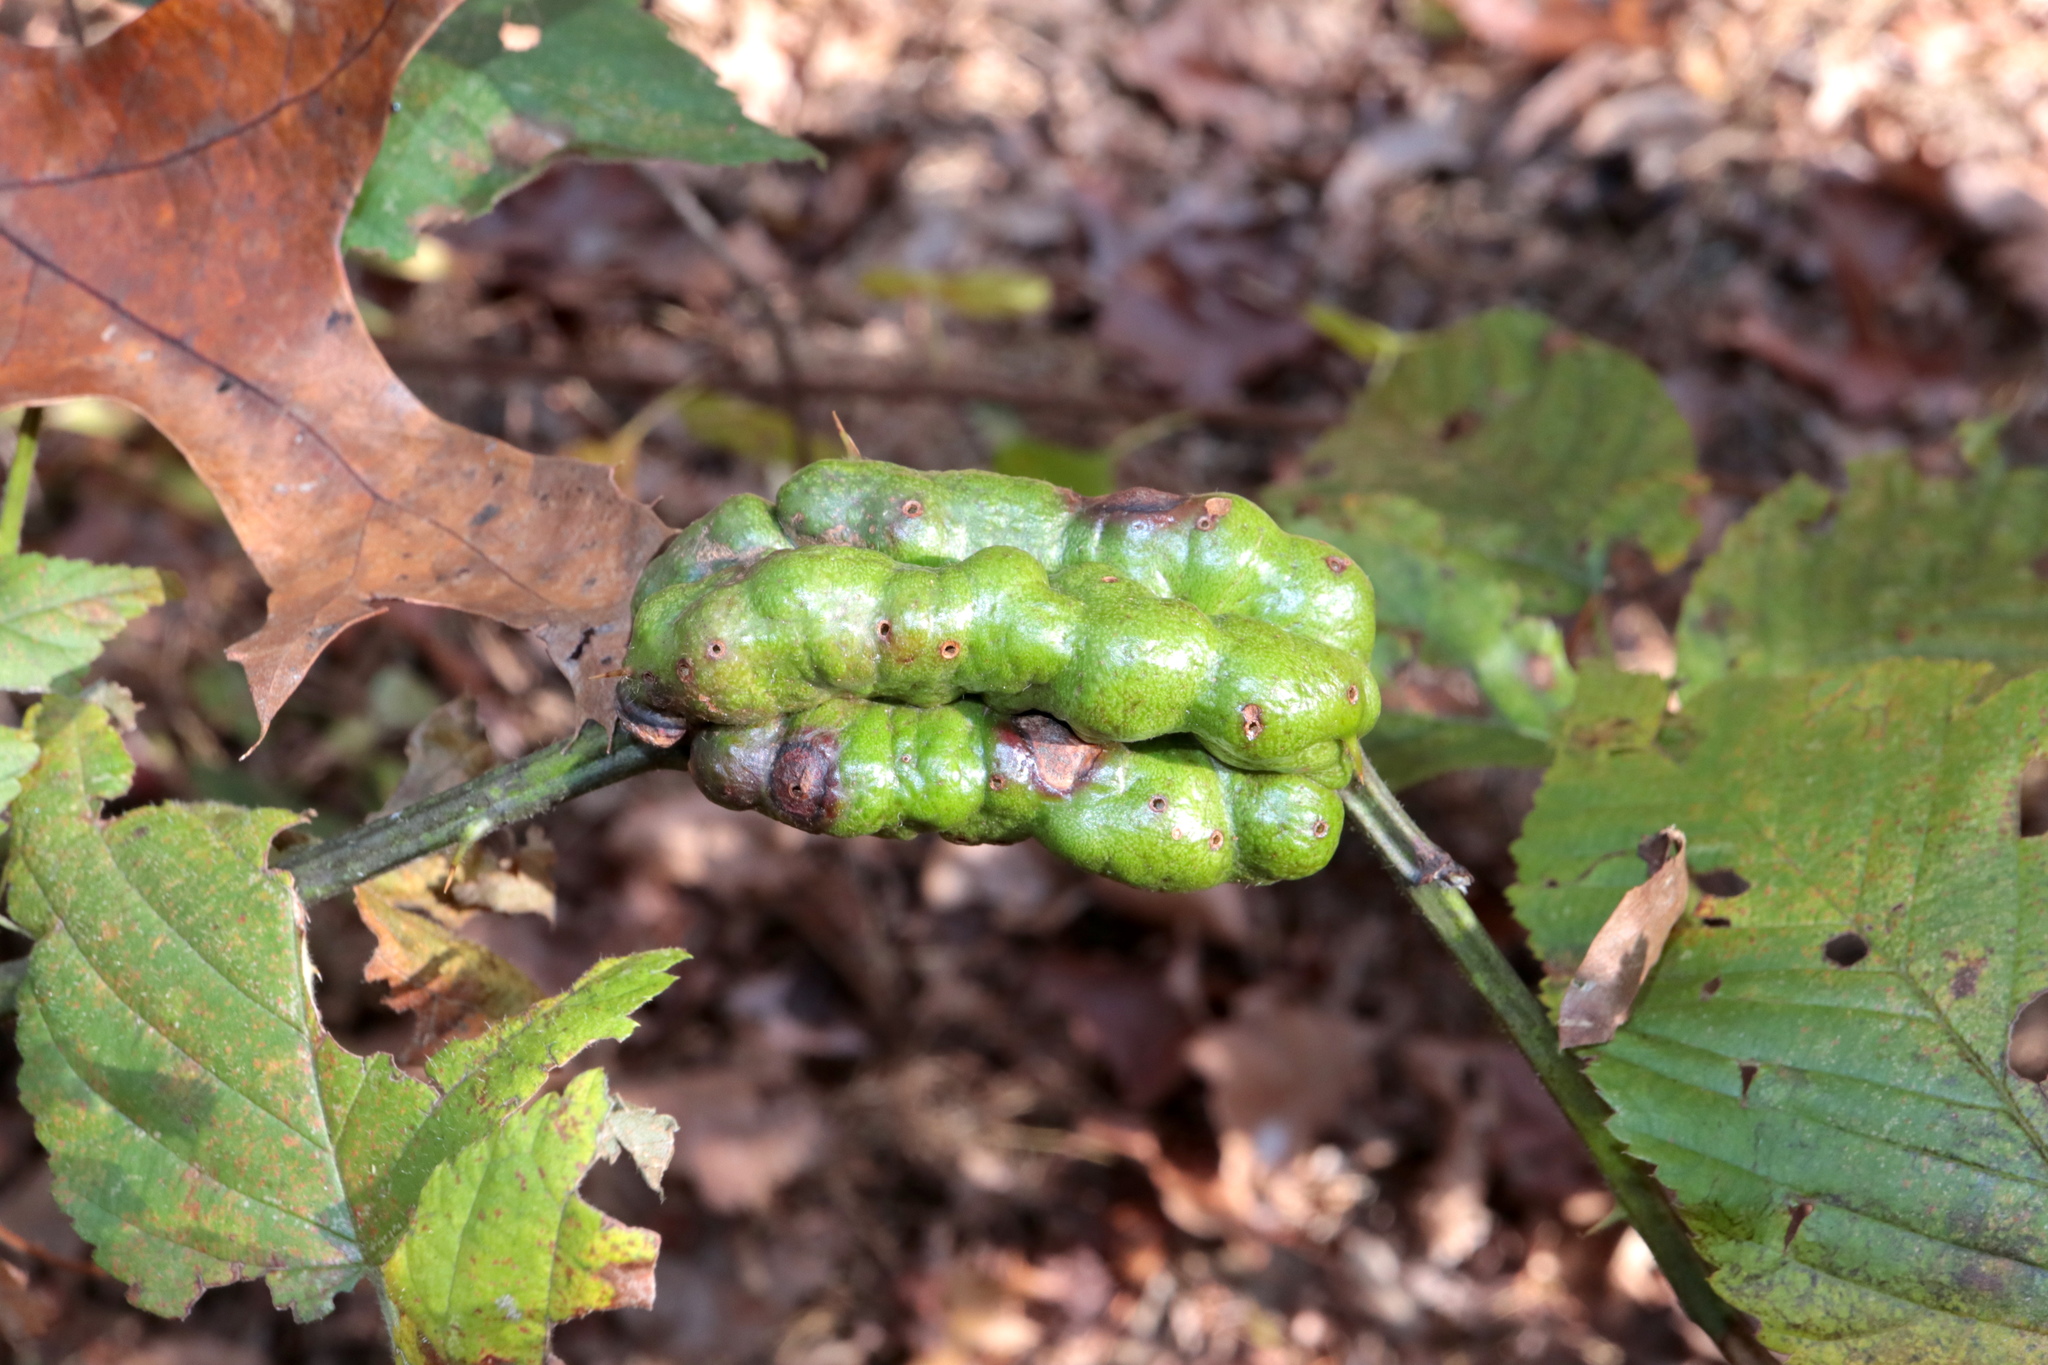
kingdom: Animalia
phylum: Arthropoda
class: Insecta
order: Hymenoptera
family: Cynipidae
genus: Diastrophus
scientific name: Diastrophus
